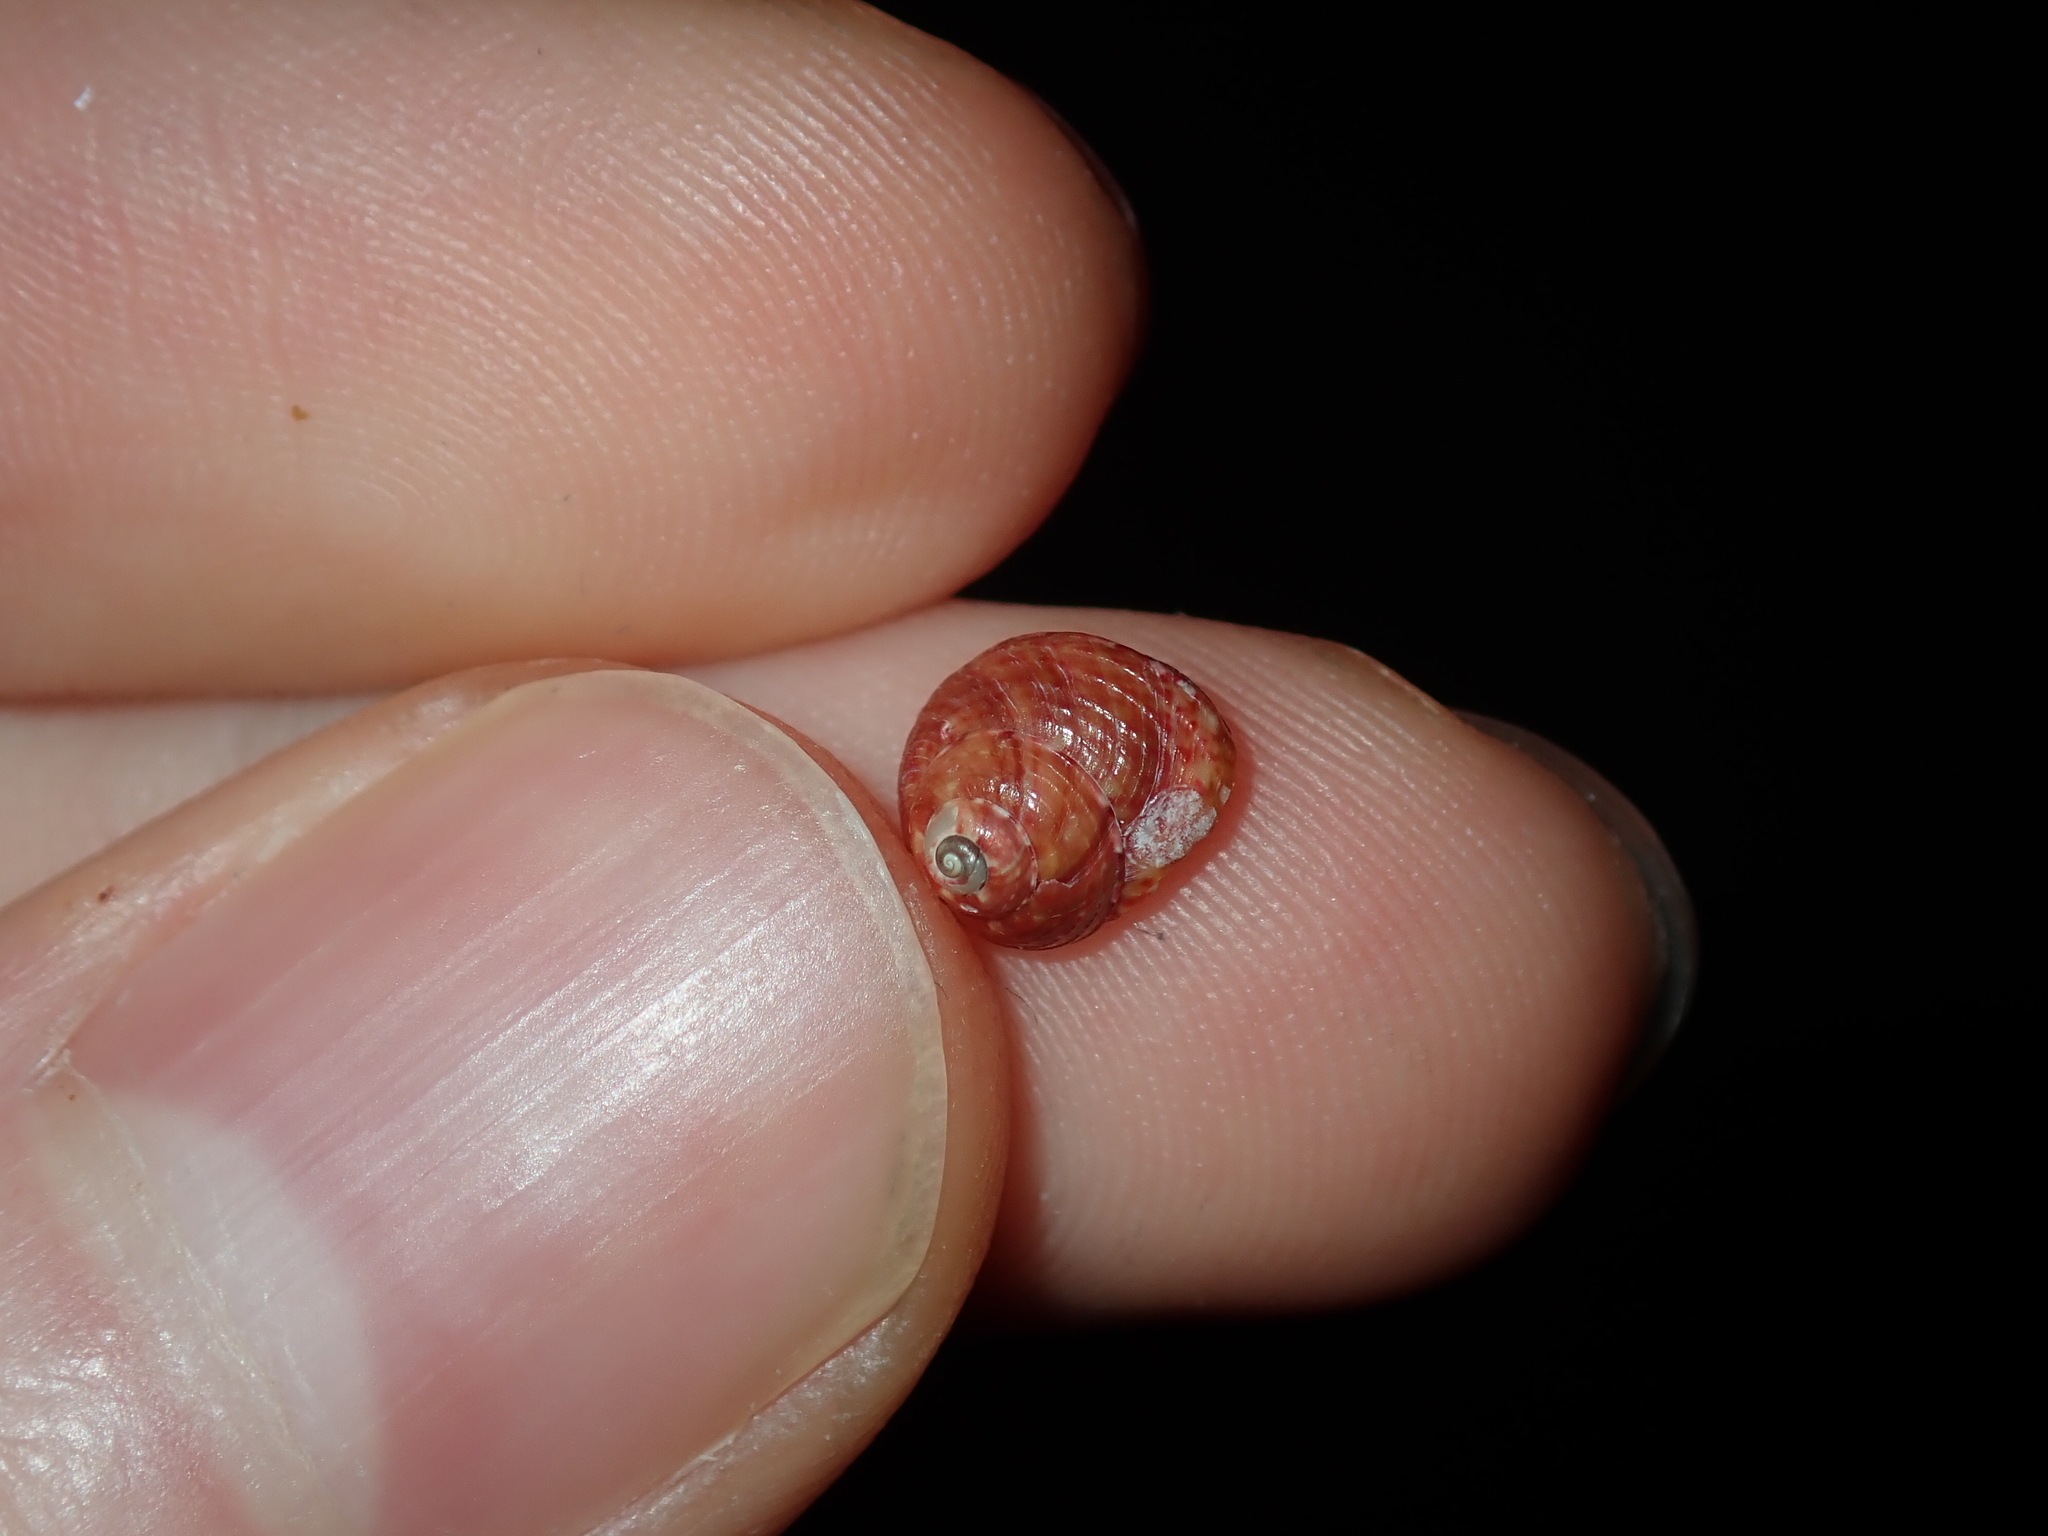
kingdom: Animalia
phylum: Mollusca
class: Gastropoda
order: Trochida
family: Trochidae
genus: Cantharidella
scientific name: Cantharidella picturata
